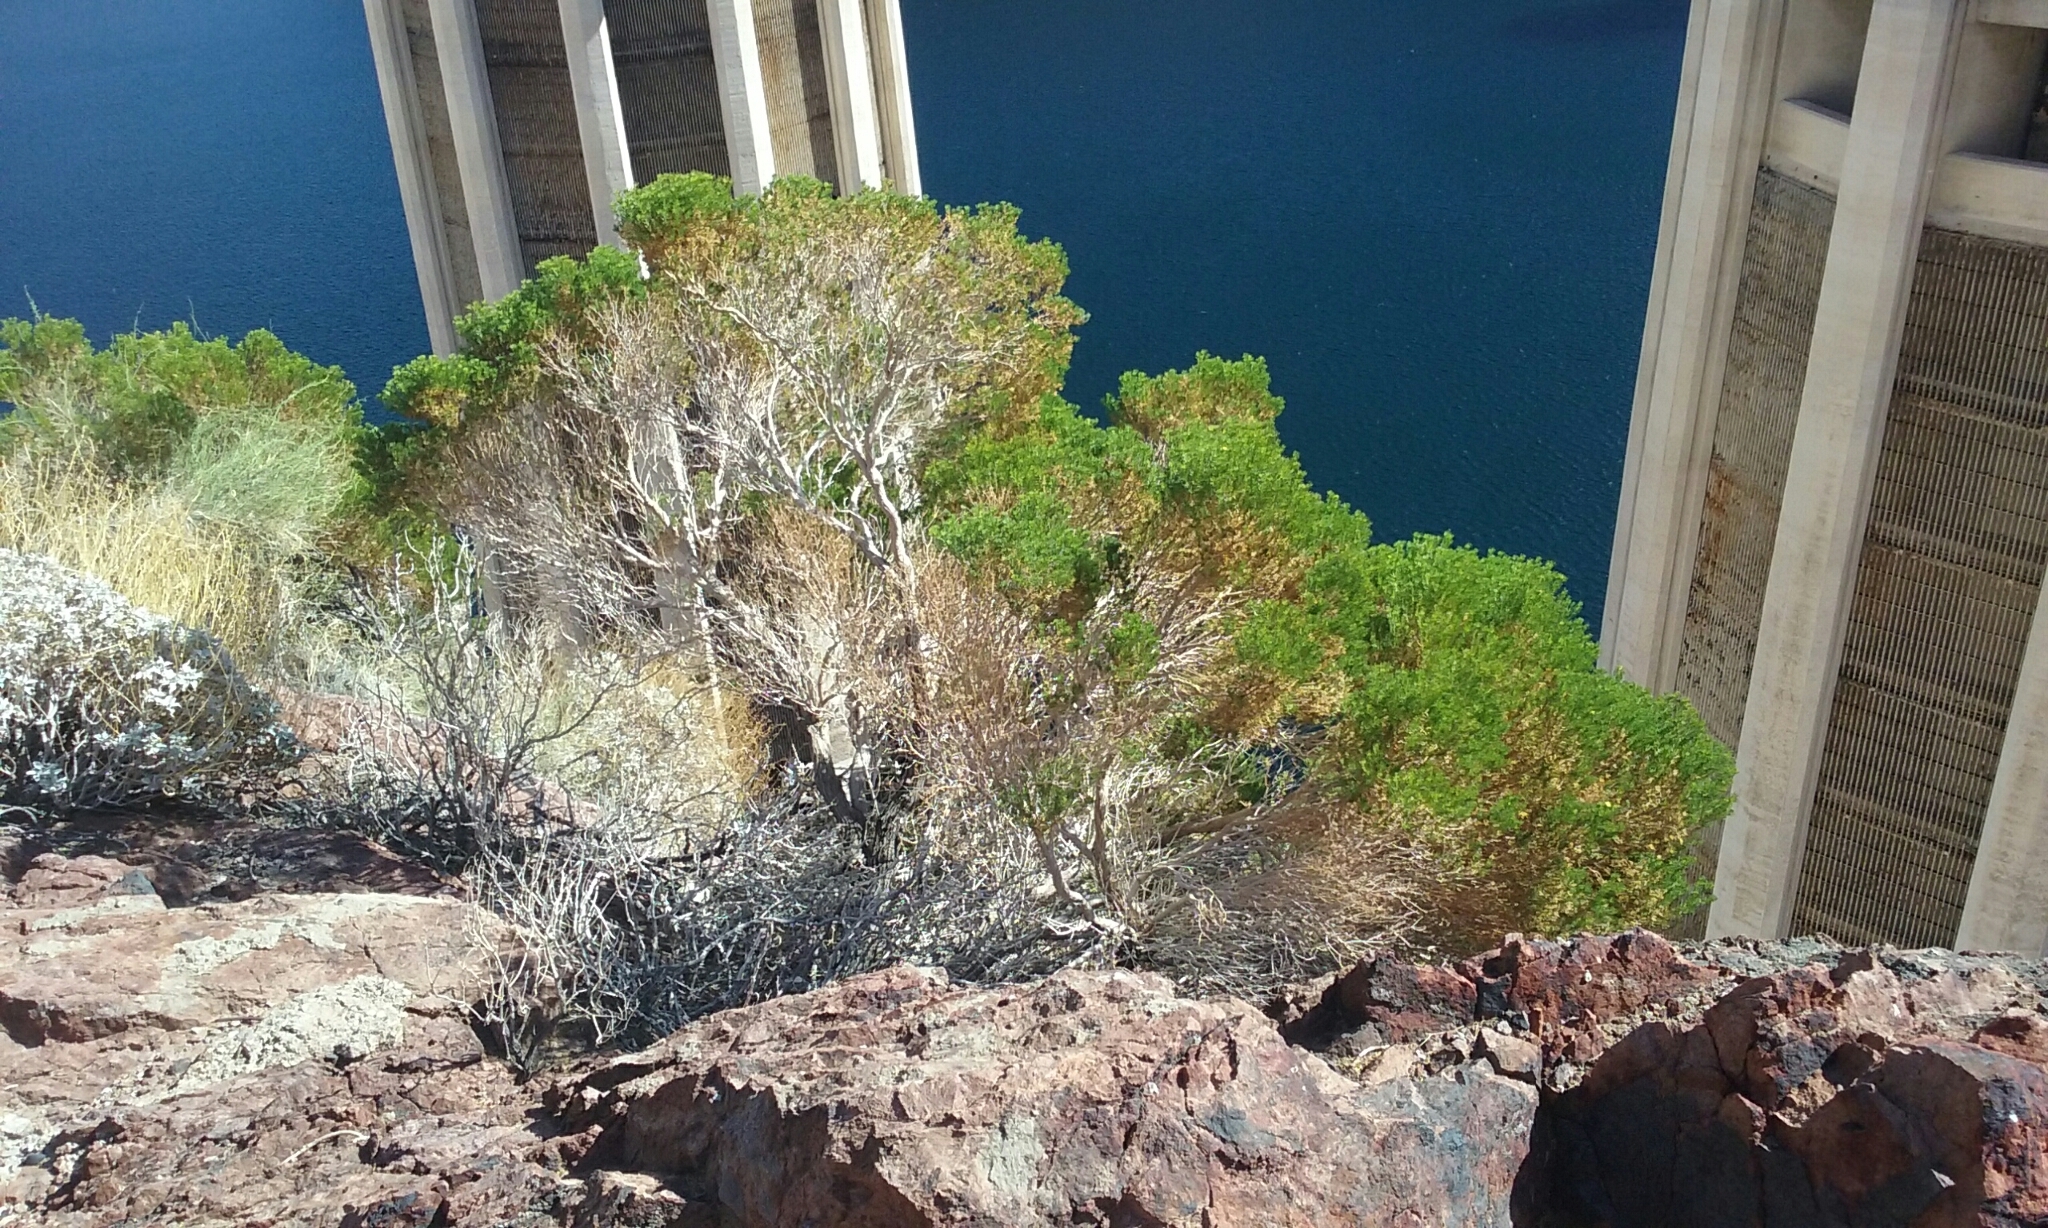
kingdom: Plantae
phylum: Tracheophyta
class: Magnoliopsida
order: Asterales
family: Asteraceae
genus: Peucephyllum
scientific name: Peucephyllum schottii
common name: Pygmy-cedar
